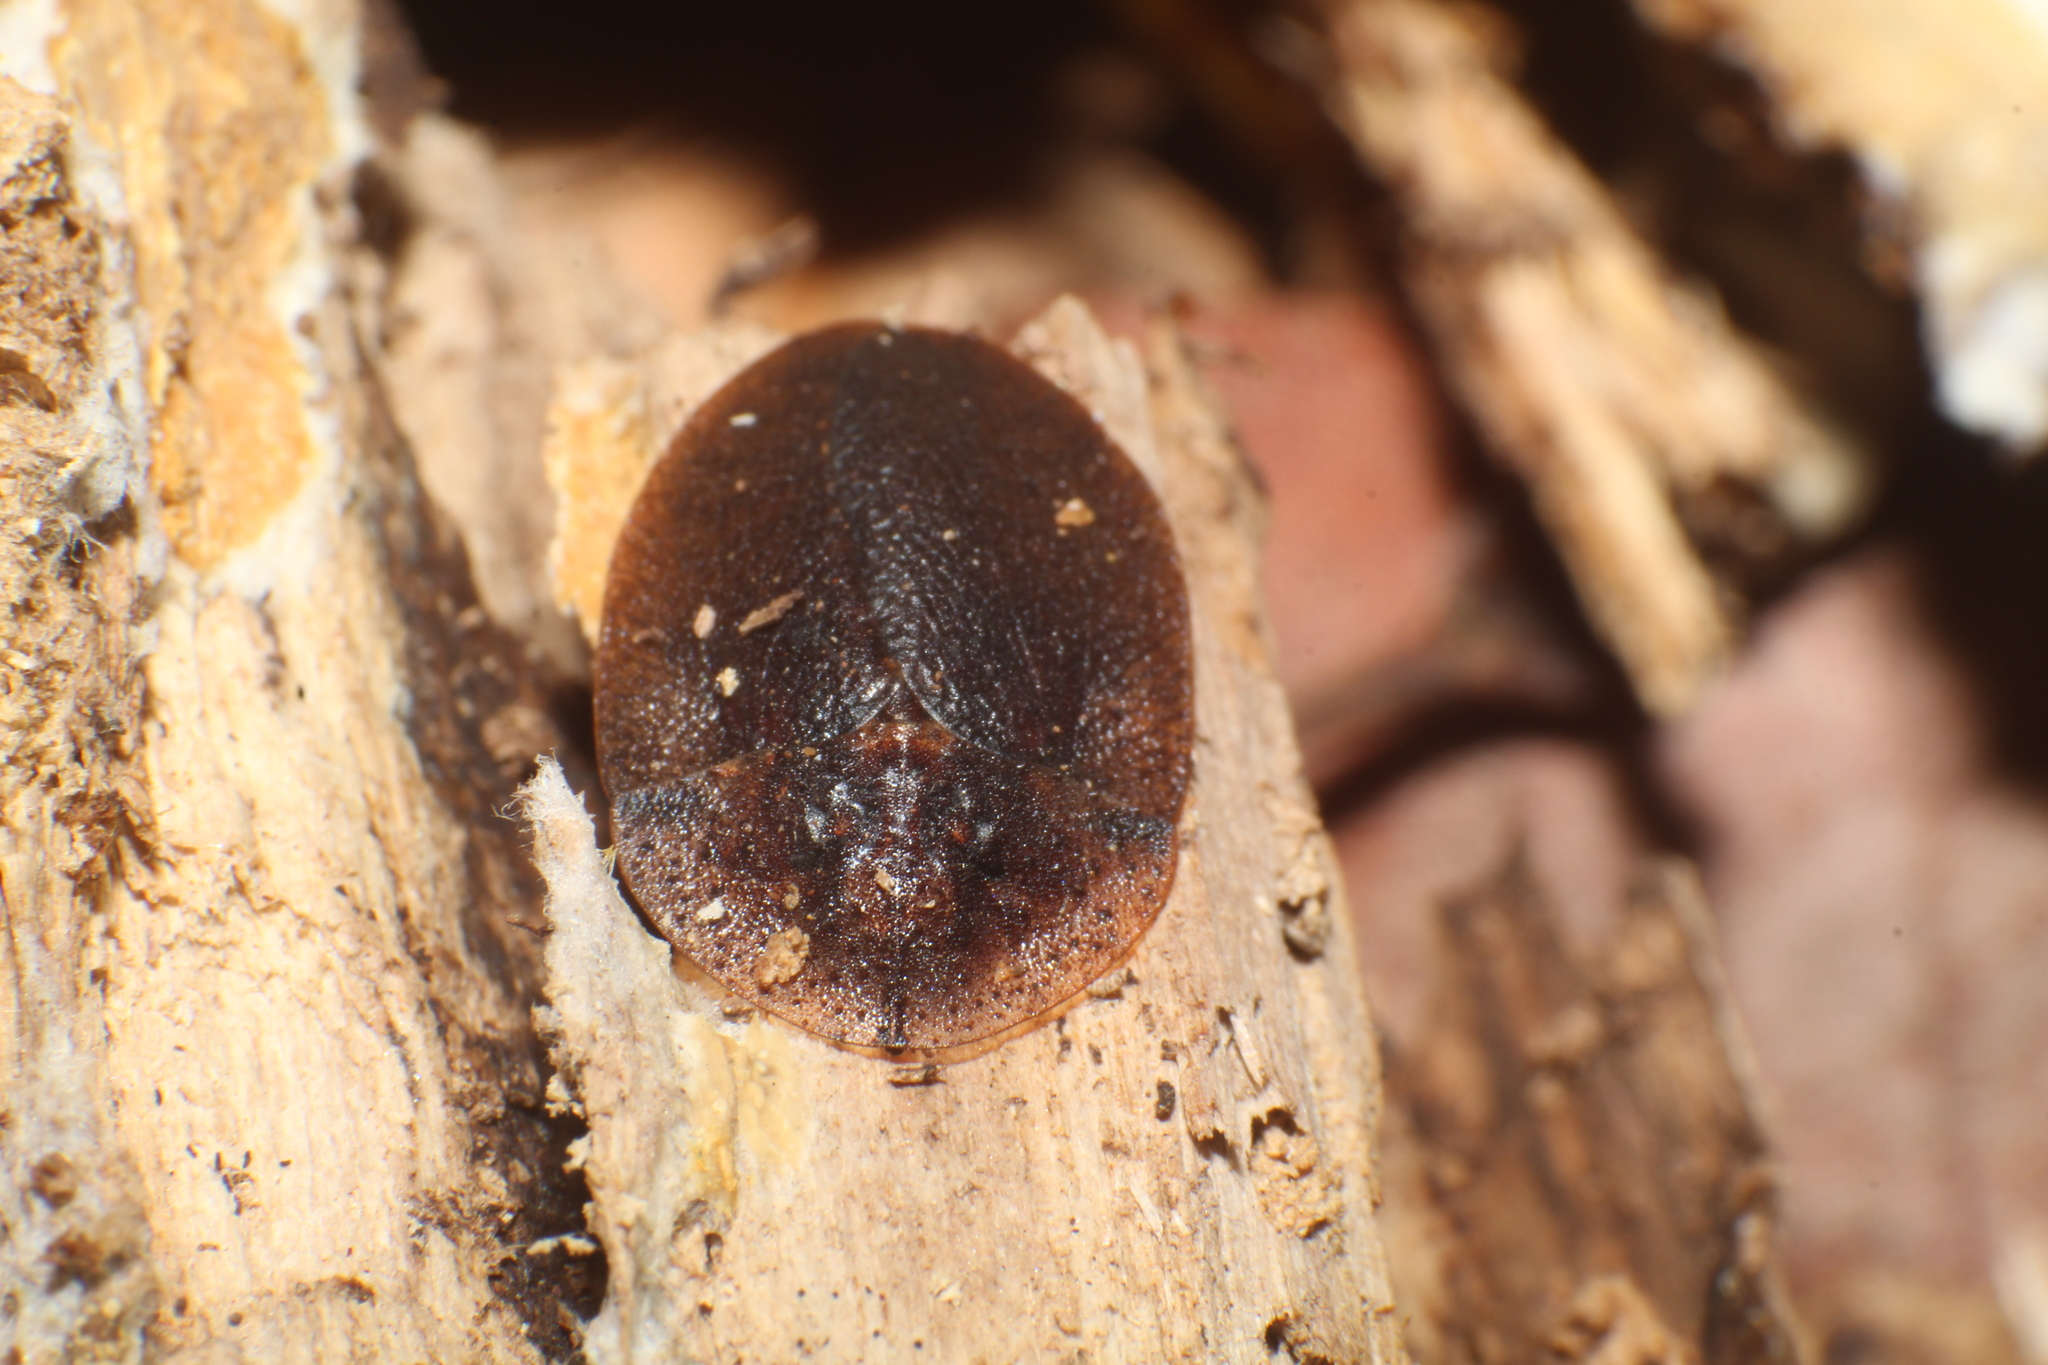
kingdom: Animalia
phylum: Arthropoda
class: Insecta
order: Blattodea
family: Blaberidae
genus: Laxta
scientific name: Laxta rieki
